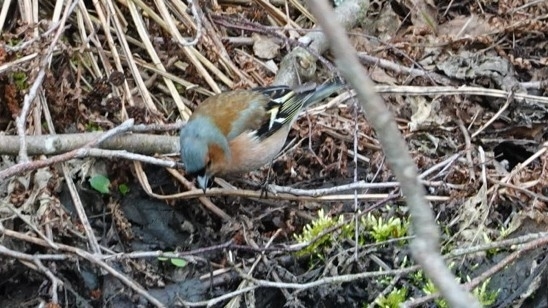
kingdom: Animalia
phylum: Chordata
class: Aves
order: Passeriformes
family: Fringillidae
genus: Fringilla
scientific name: Fringilla coelebs
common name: Common chaffinch
